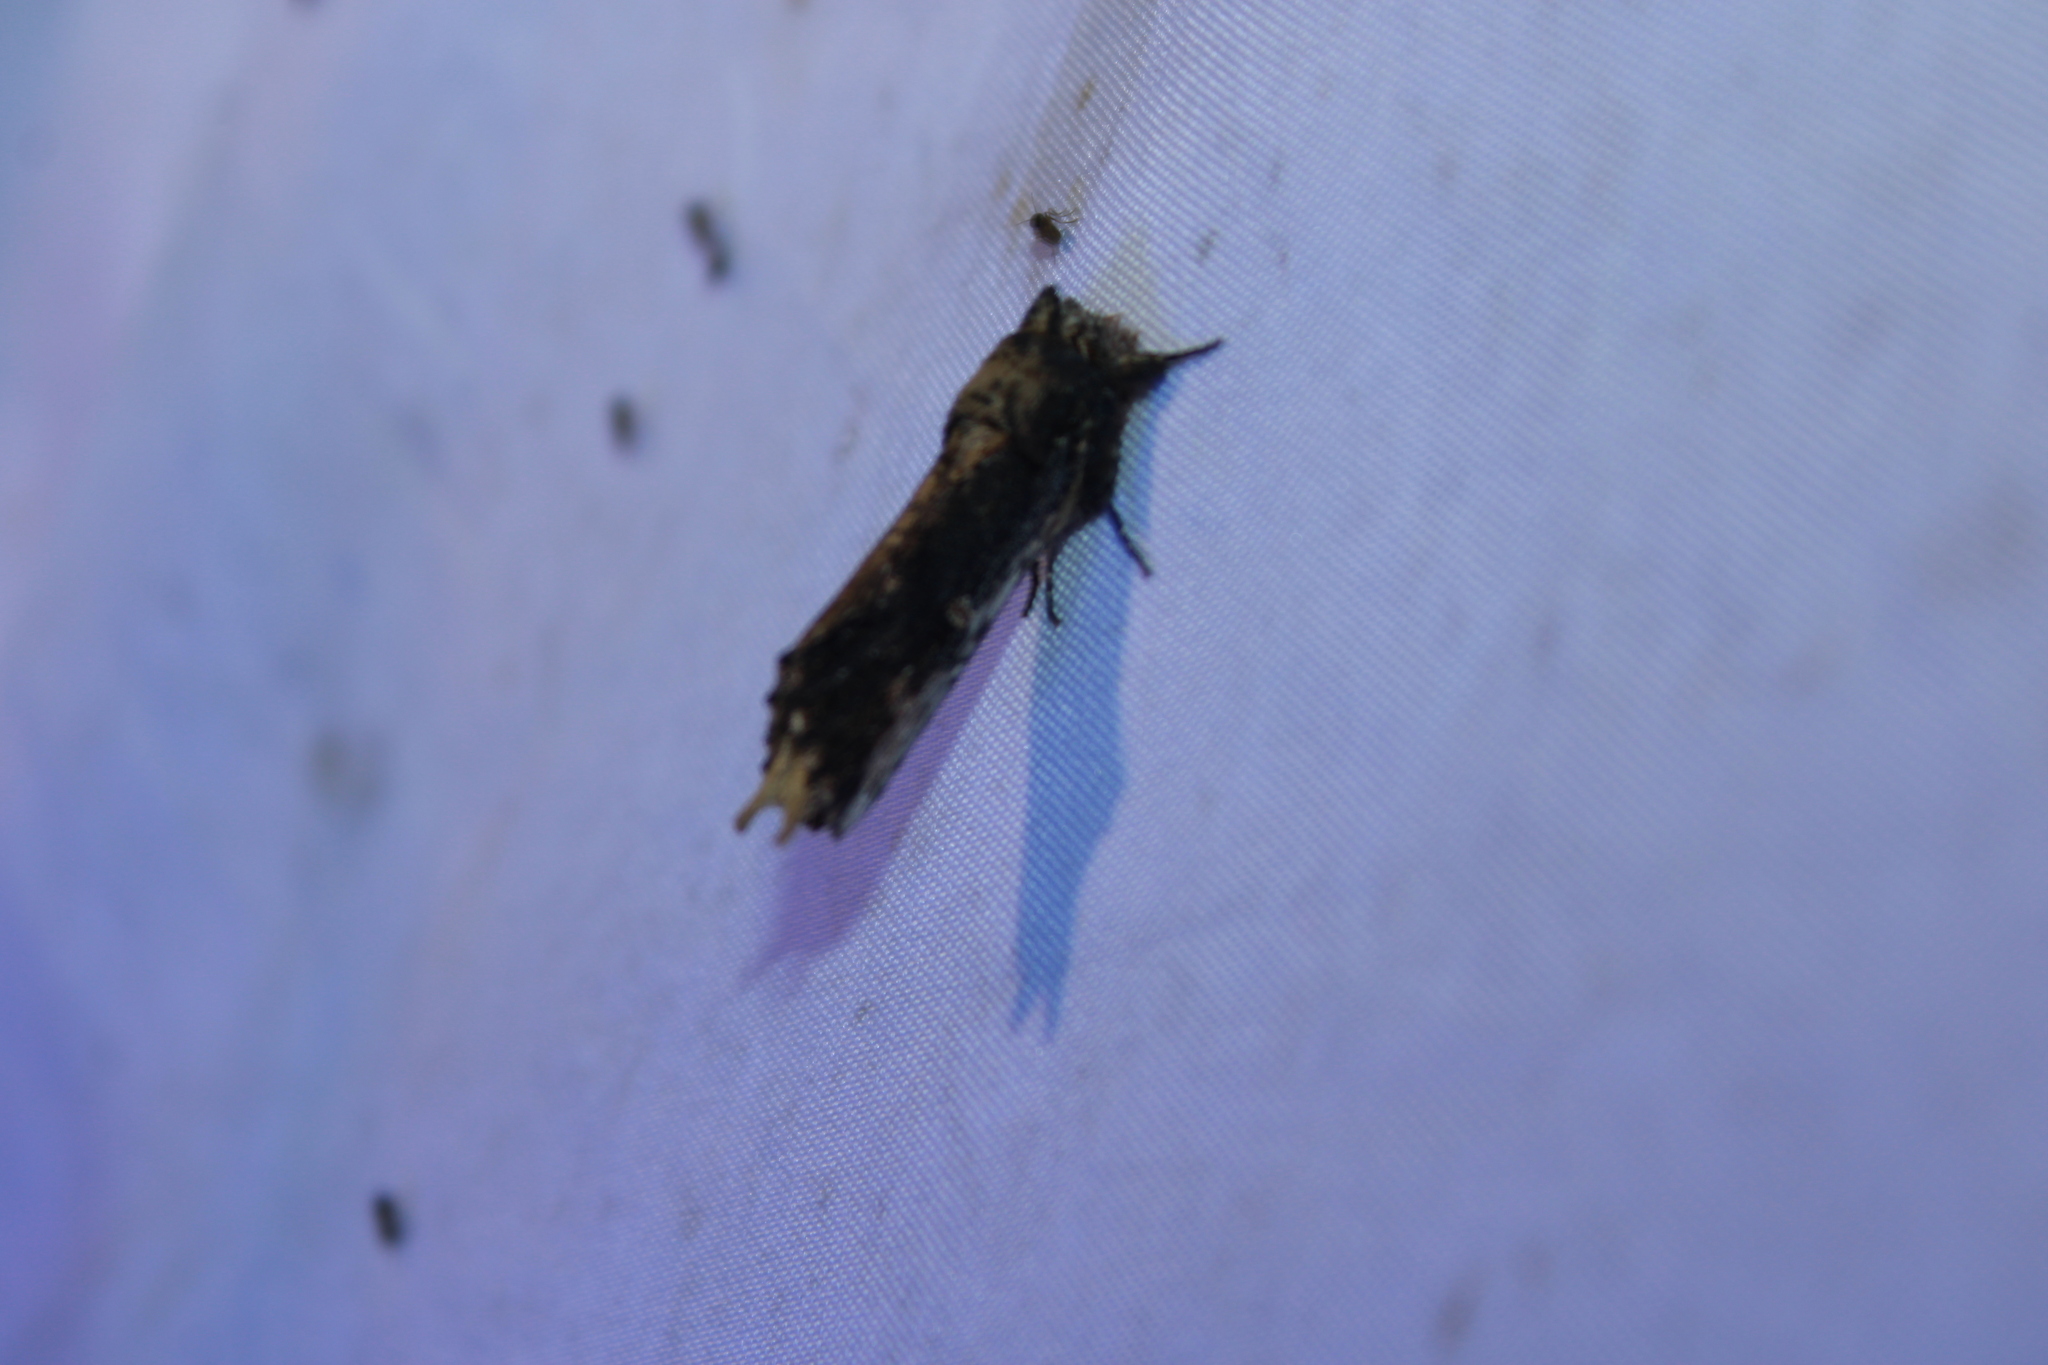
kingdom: Animalia
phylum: Arthropoda
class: Insecta
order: Lepidoptera
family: Notodontidae
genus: Schizura
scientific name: Schizura ipomaeae
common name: Morning-glory prominent
